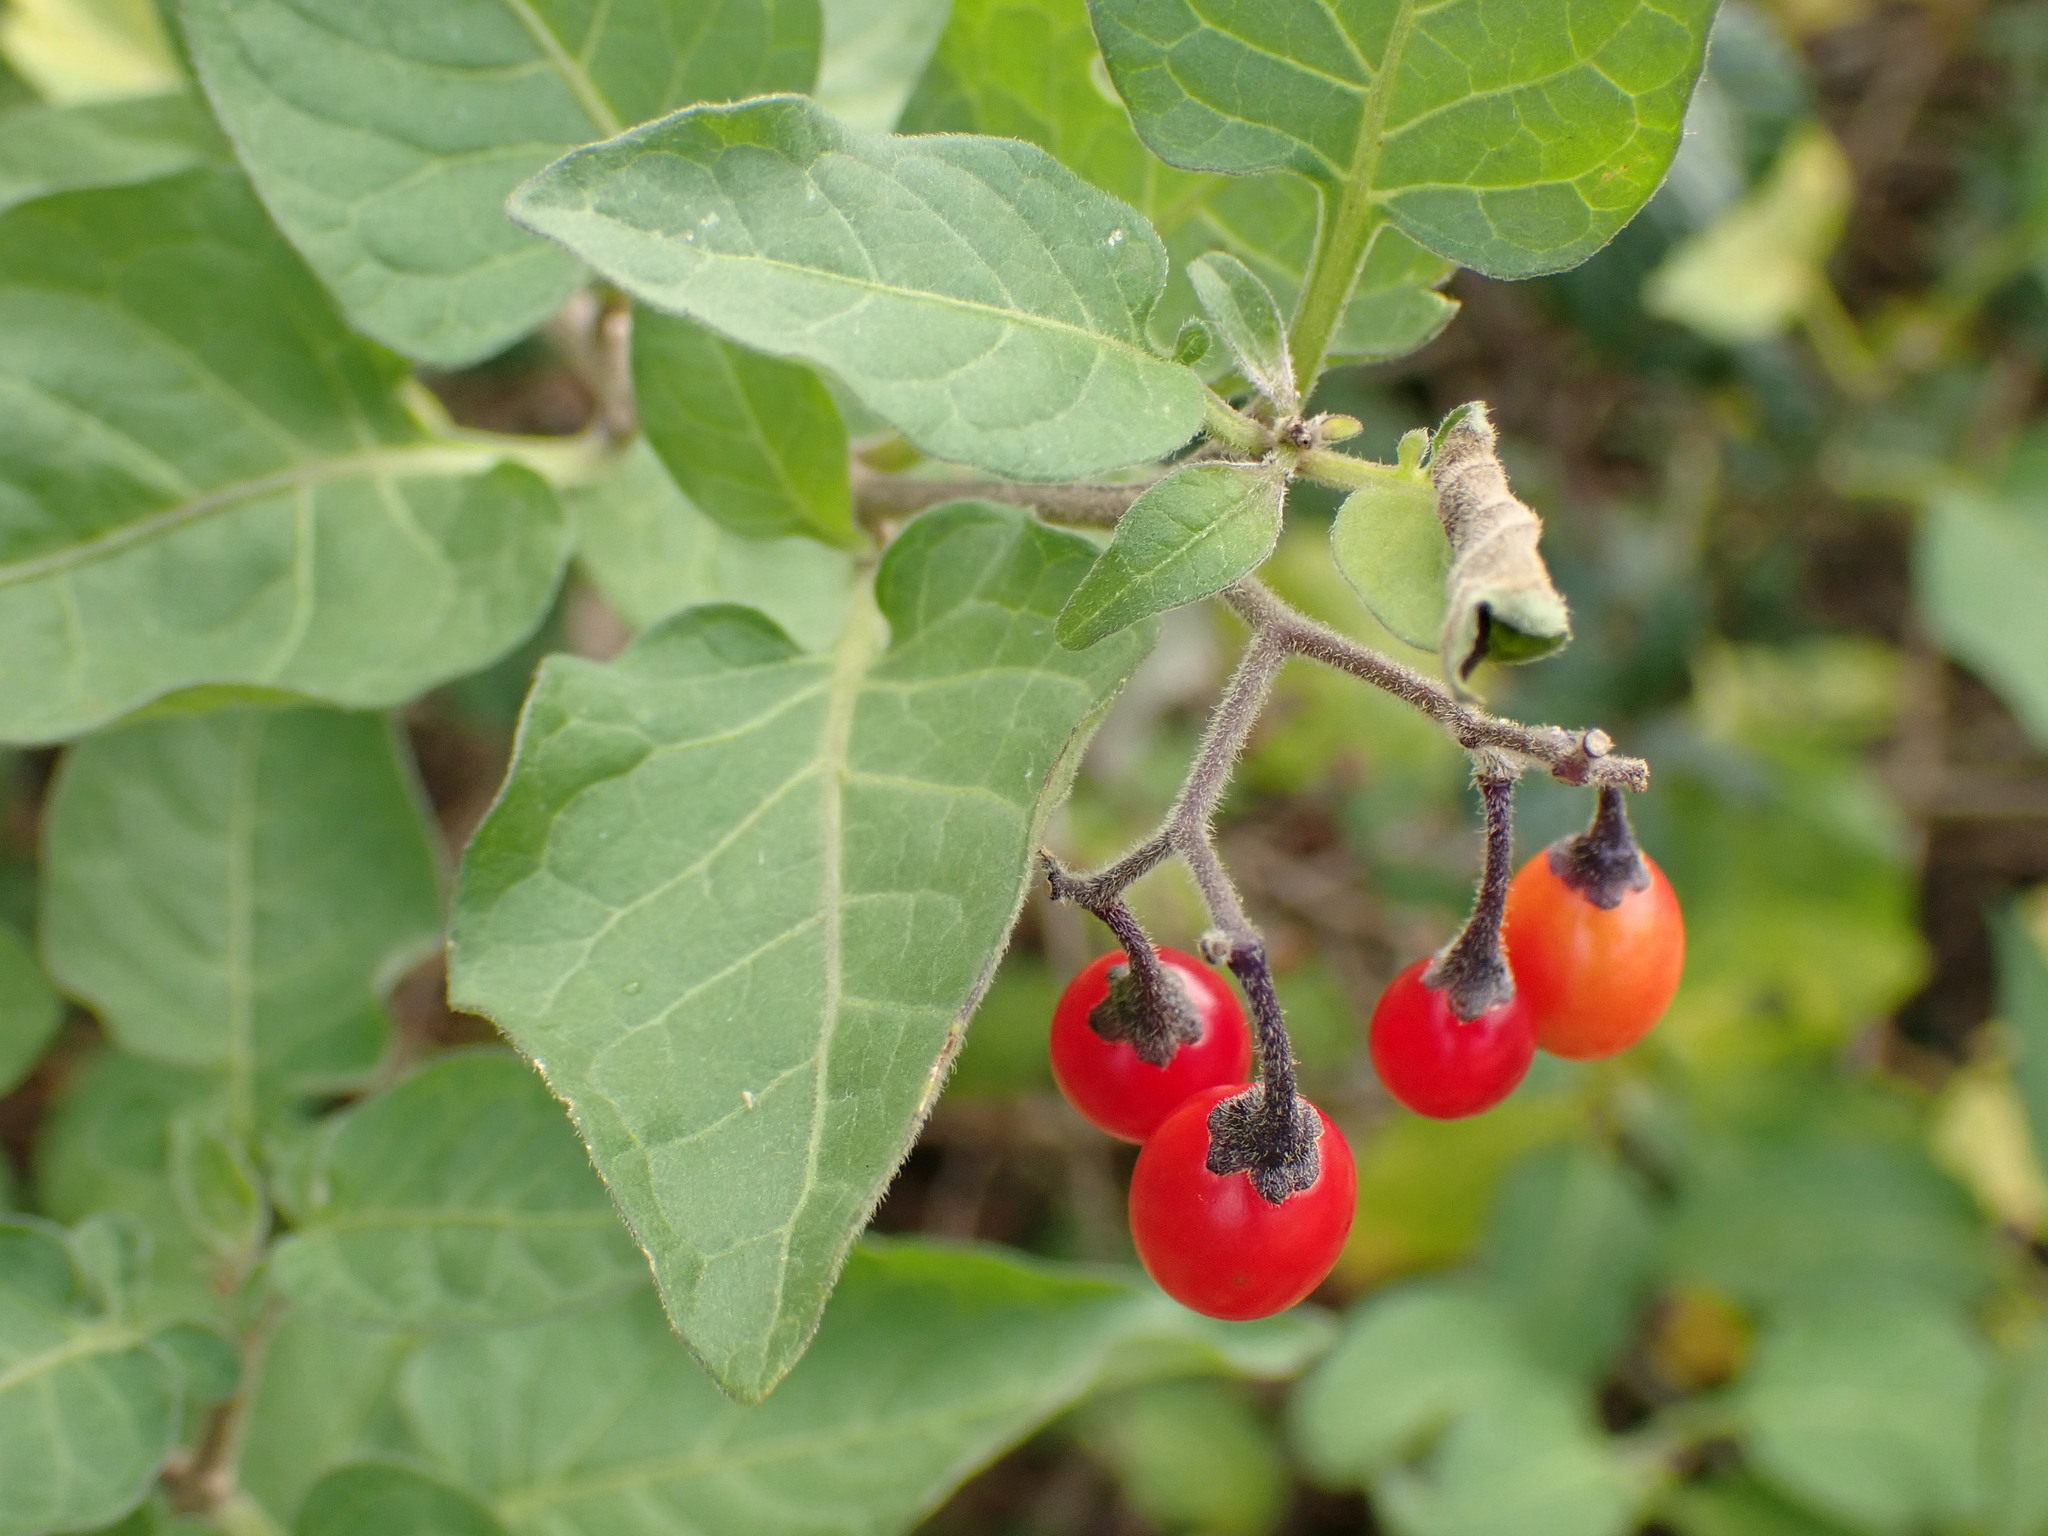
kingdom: Plantae
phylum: Tracheophyta
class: Magnoliopsida
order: Solanales
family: Solanaceae
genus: Solanum
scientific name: Solanum dulcamara
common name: Climbing nightshade
